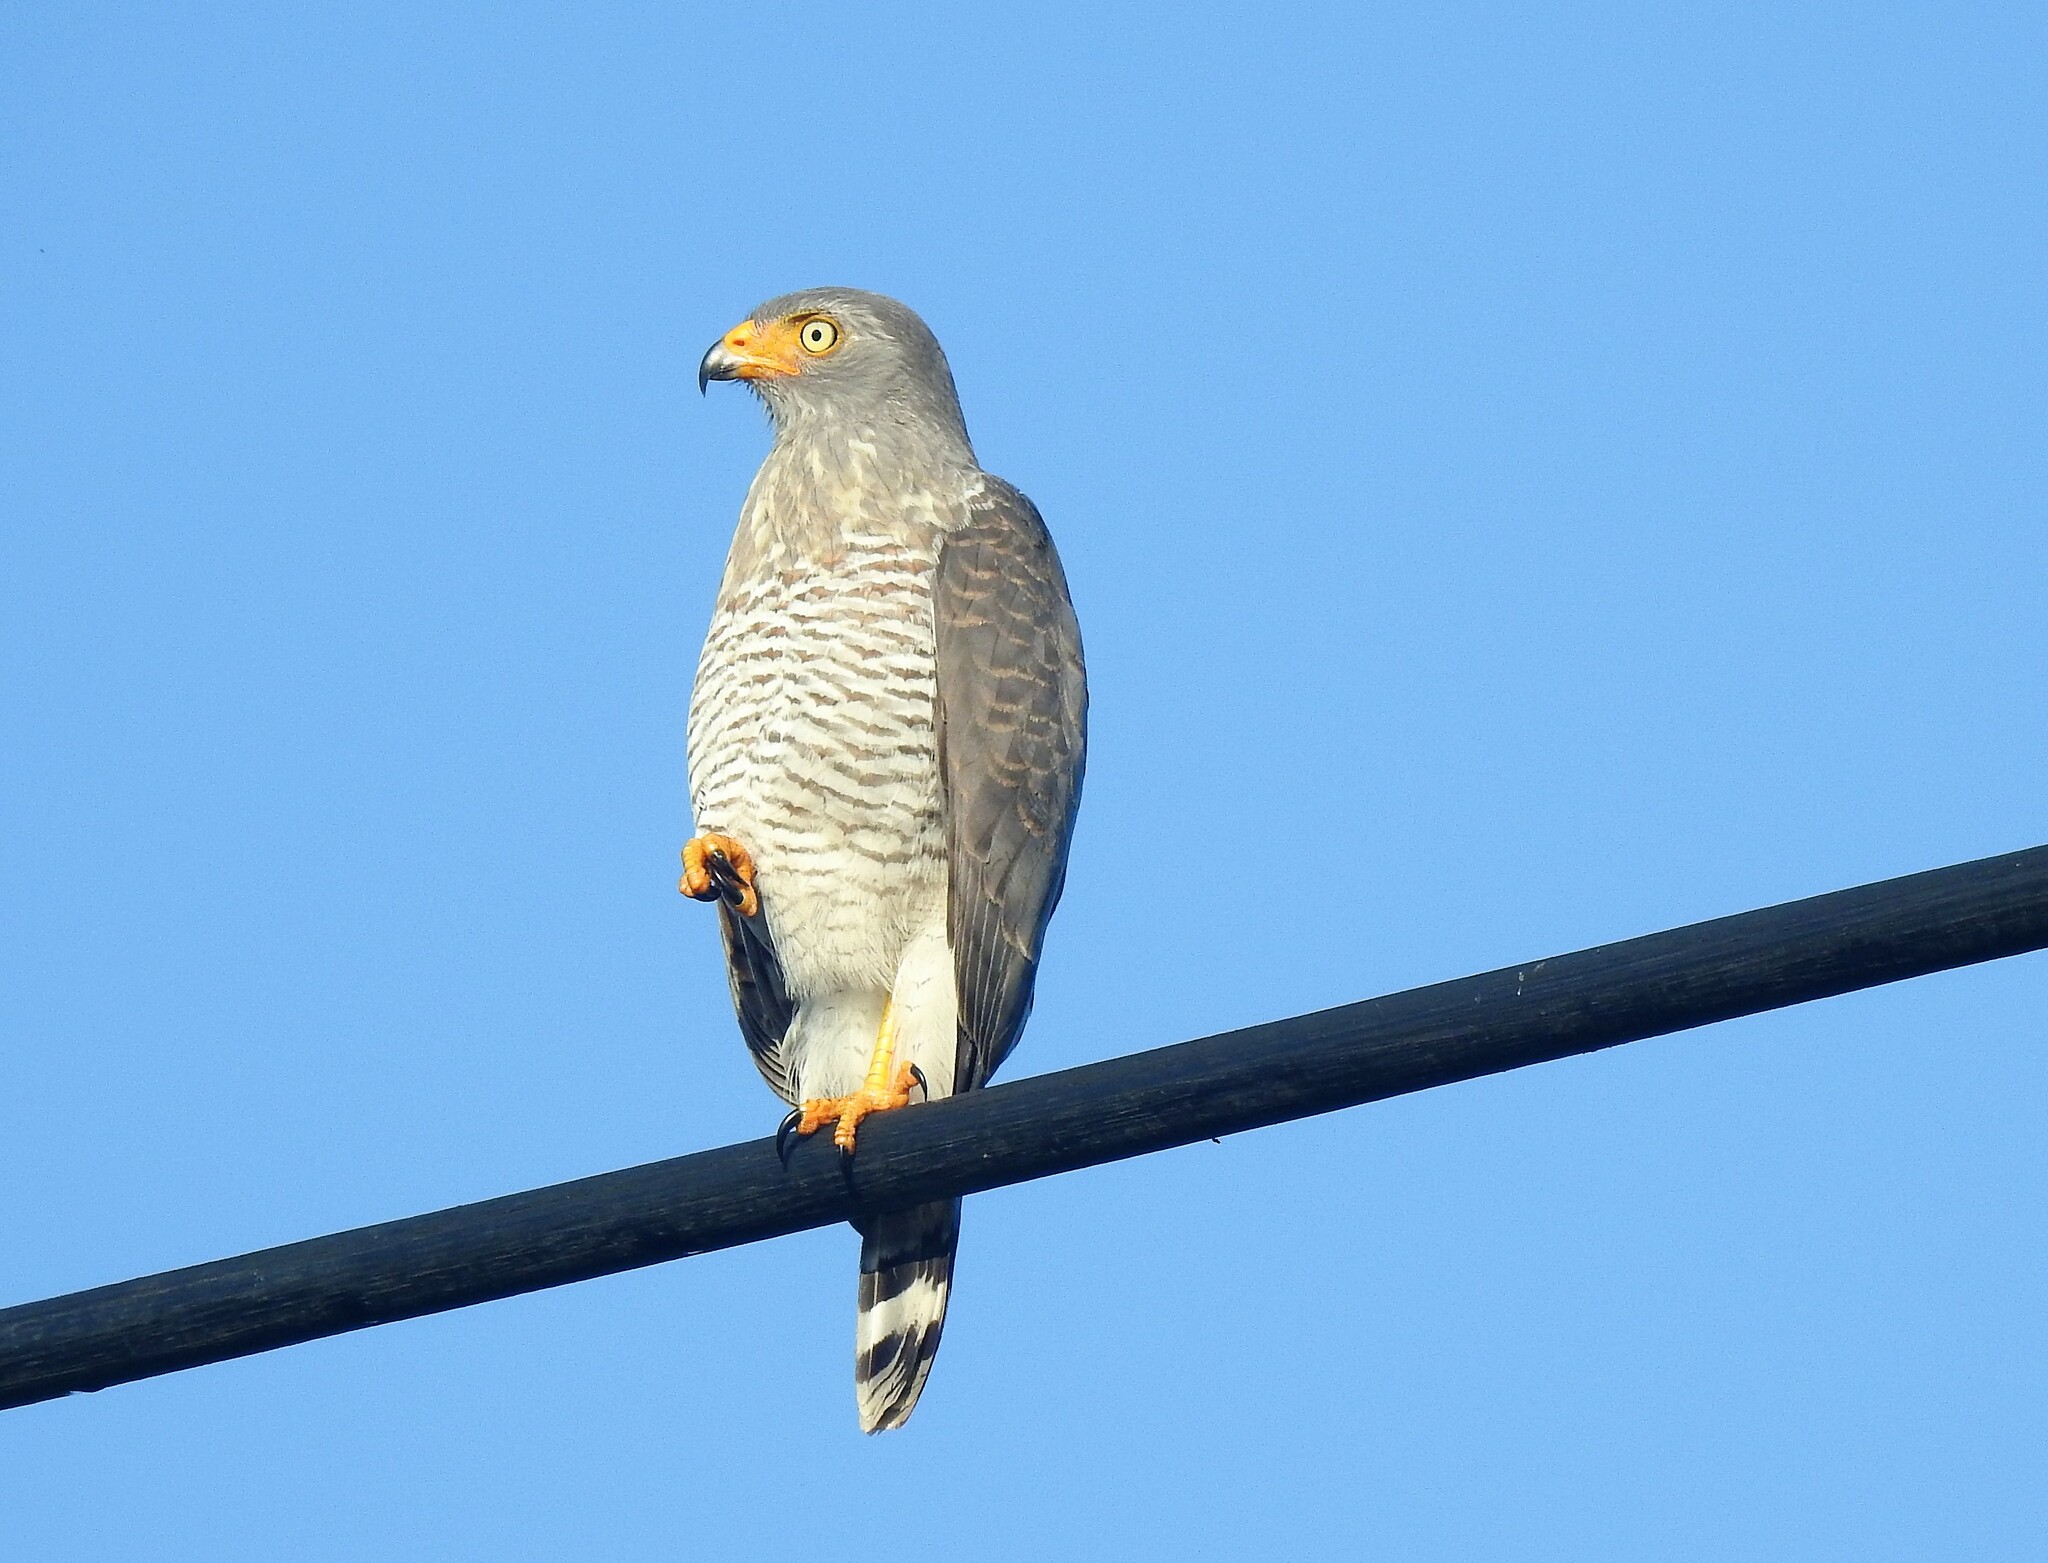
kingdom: Animalia
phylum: Chordata
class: Aves
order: Accipitriformes
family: Accipitridae
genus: Rupornis
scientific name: Rupornis magnirostris
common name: Roadside hawk
